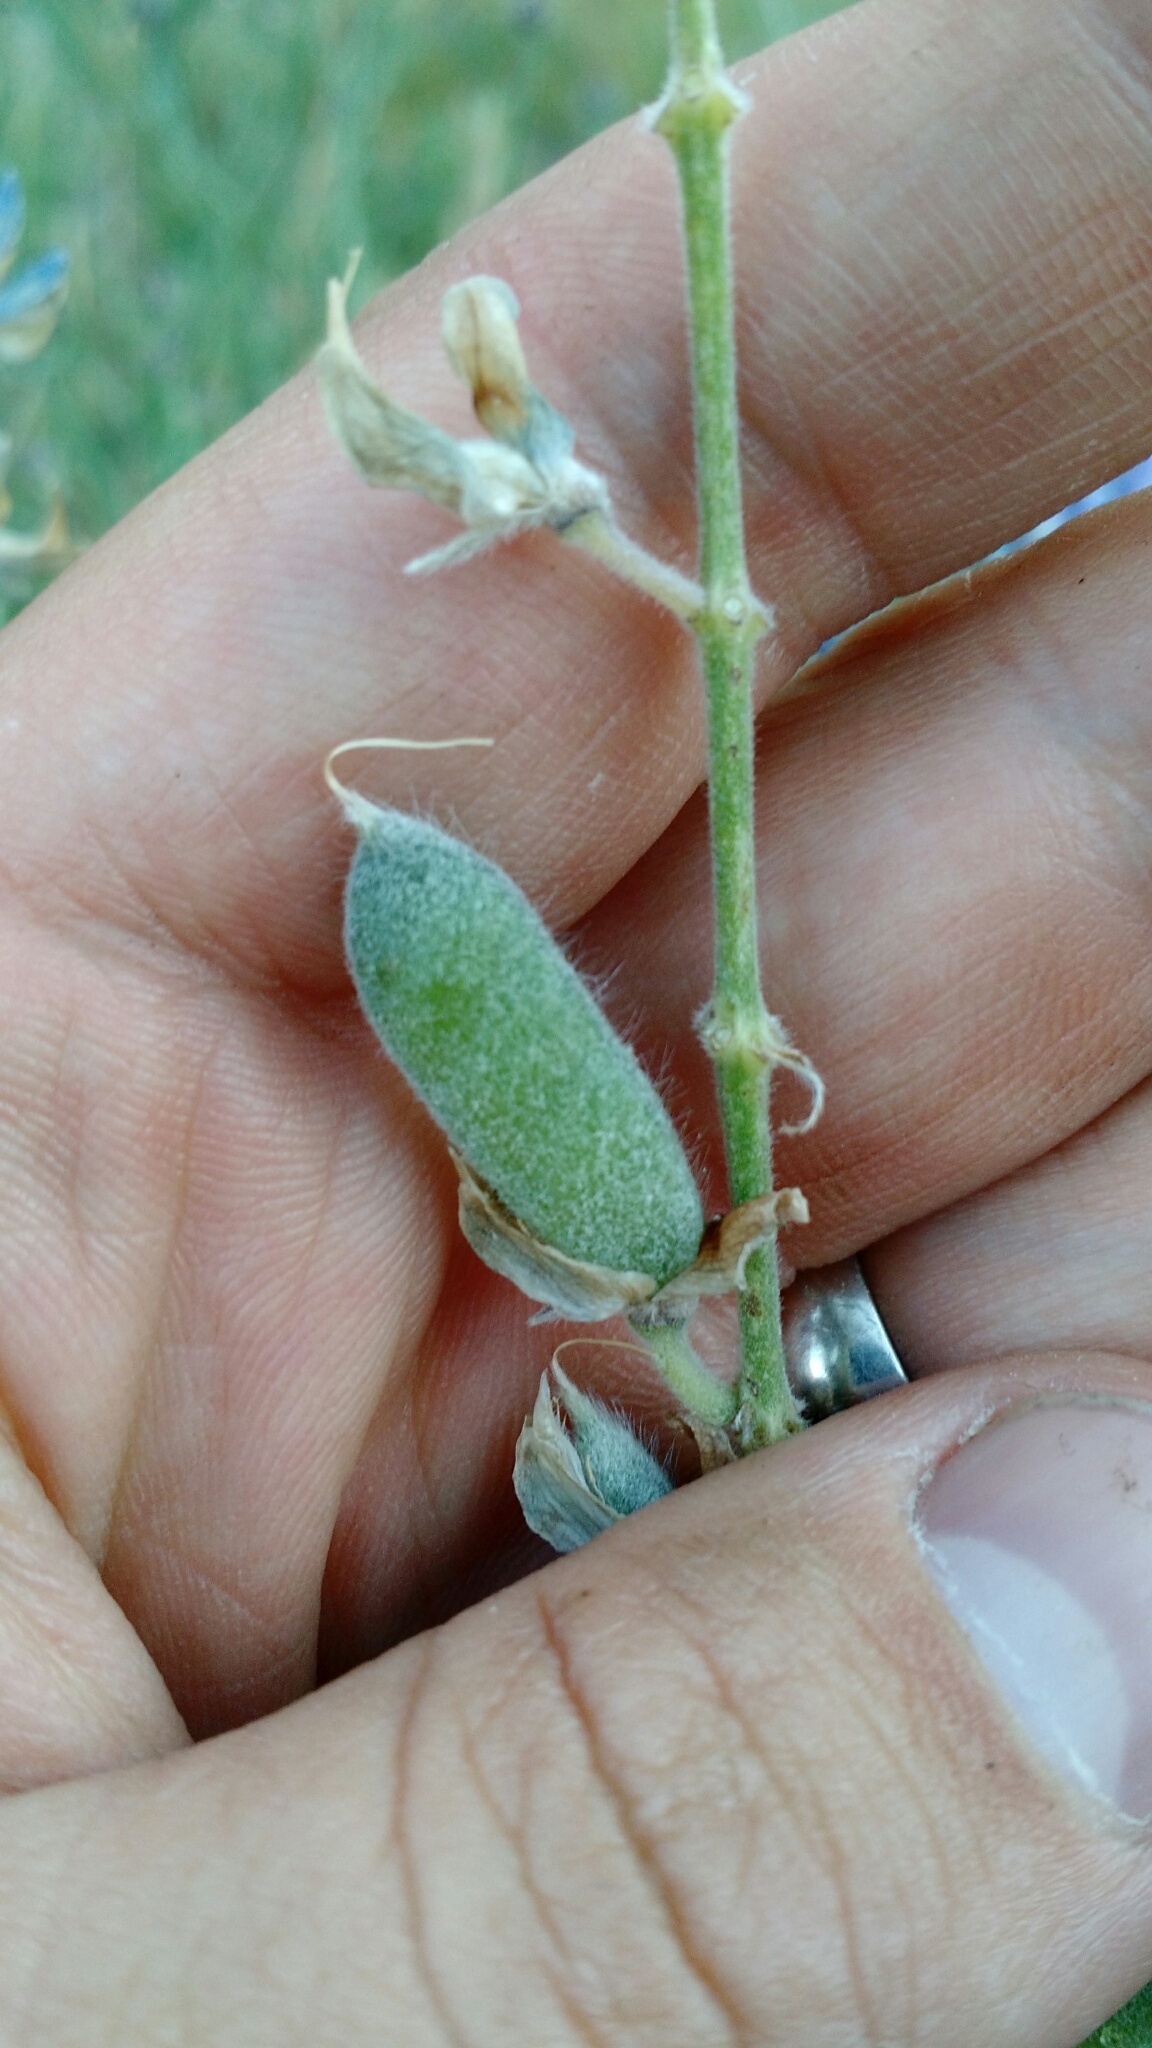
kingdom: Plantae
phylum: Tracheophyta
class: Magnoliopsida
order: Fabales
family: Fabaceae
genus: Lupinus
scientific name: Lupinus argenteus
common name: Silvery lupine
